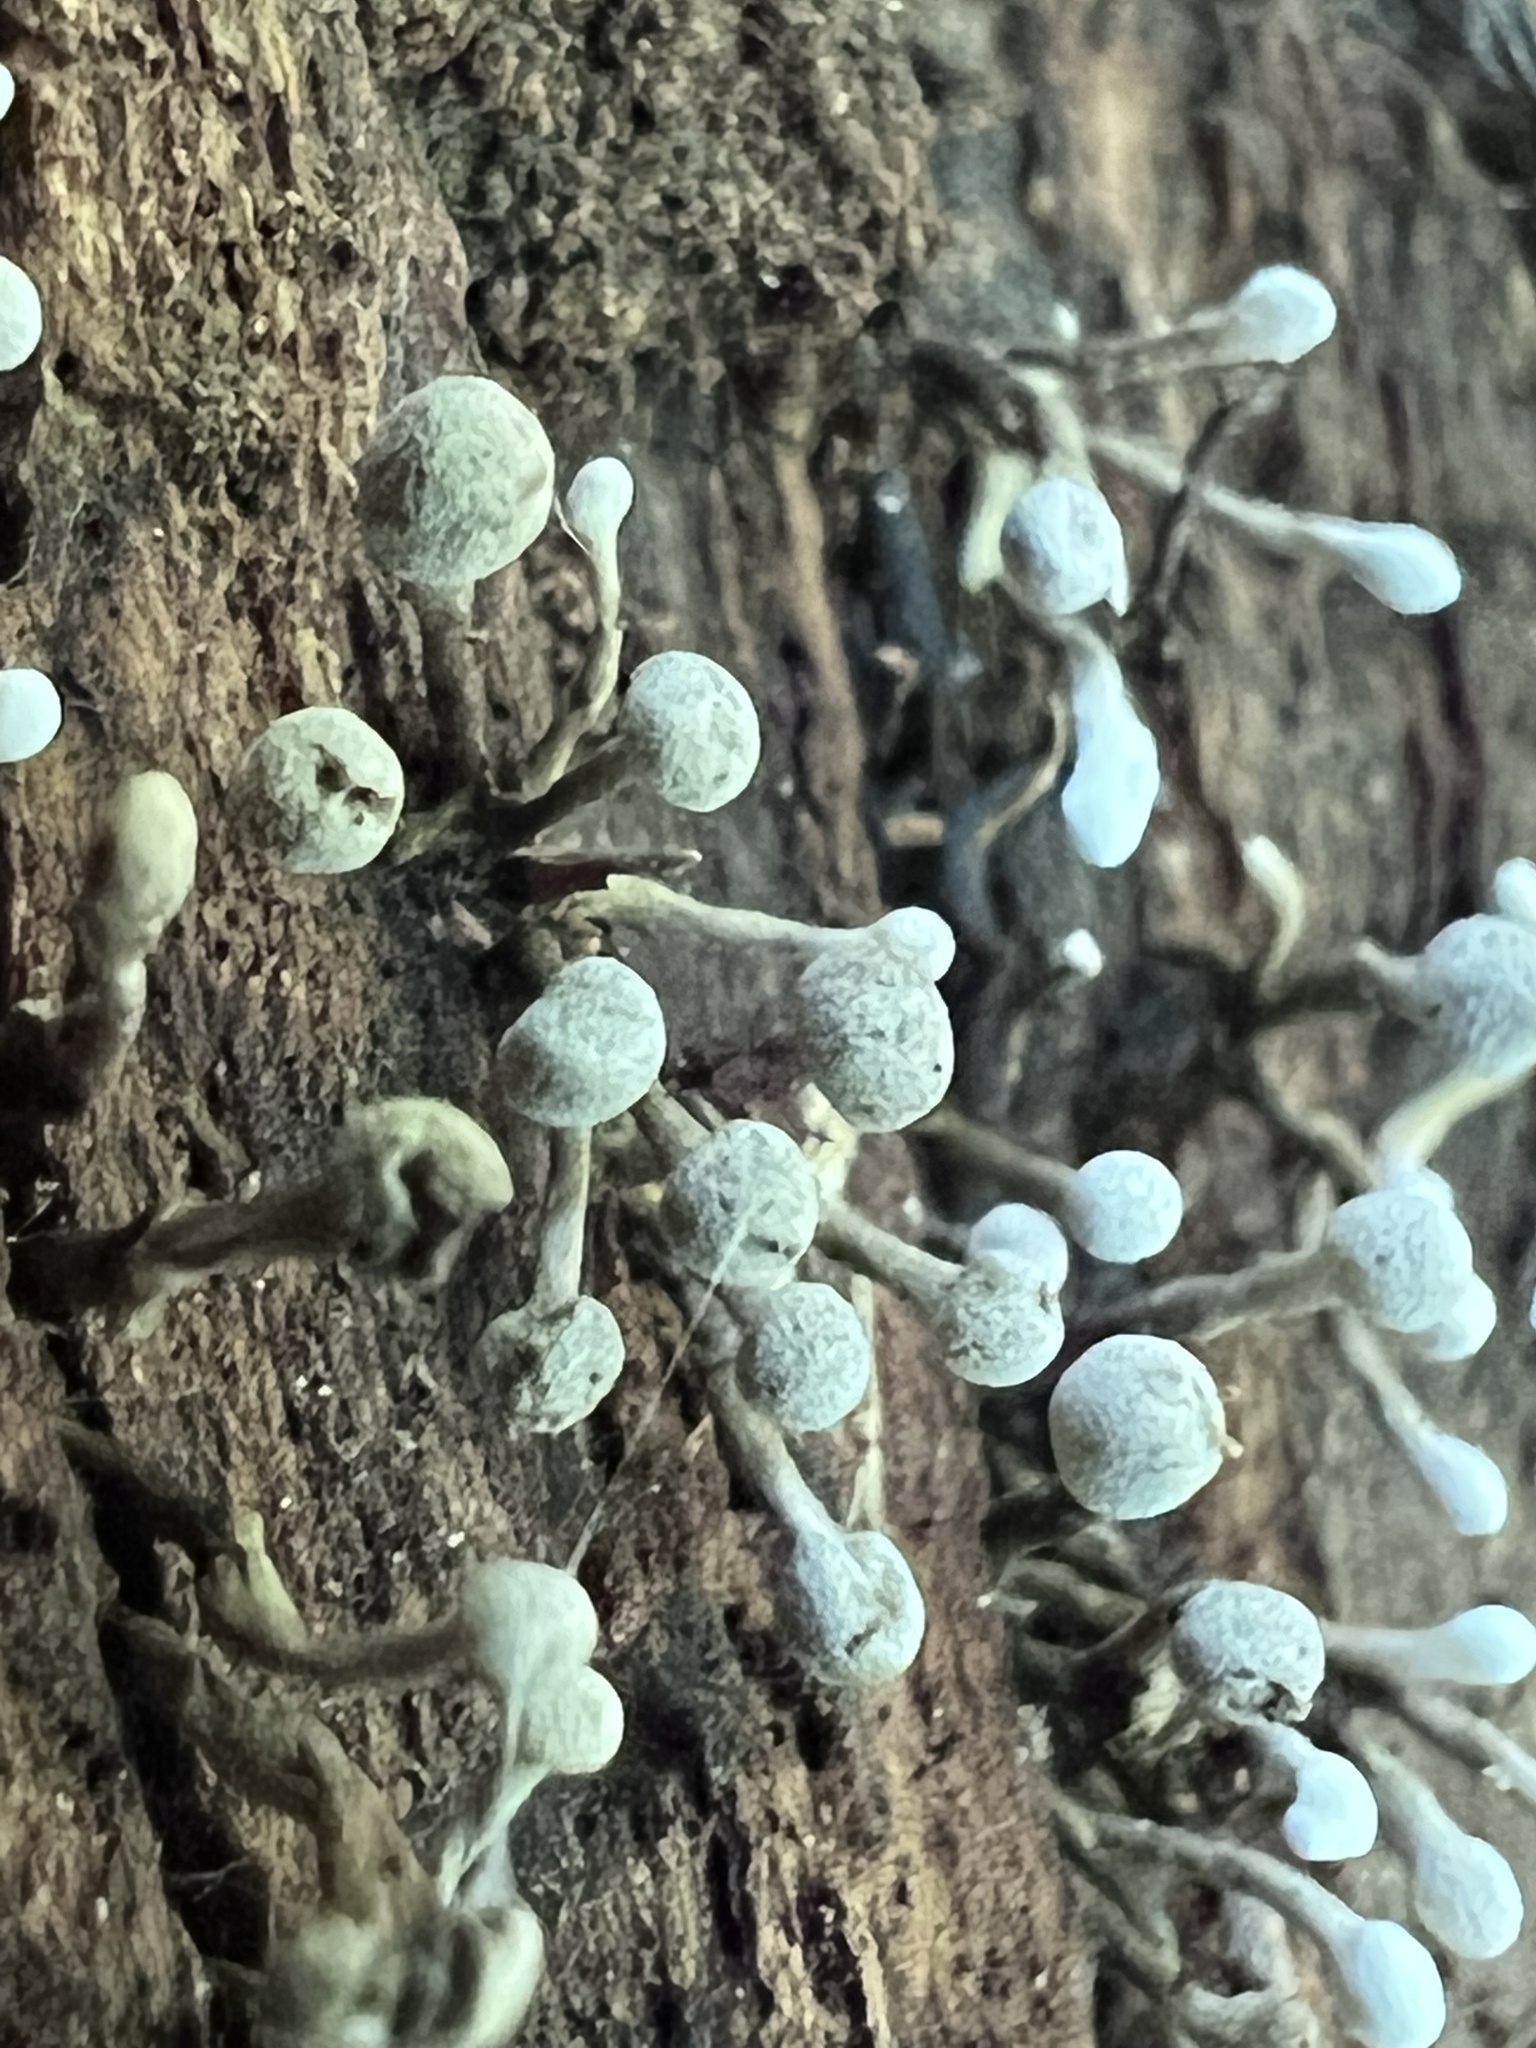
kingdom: Fungi
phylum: Basidiomycota
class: Atractiellomycetes
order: Atractiellales
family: Phleogenaceae
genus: Phleogena
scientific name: Phleogena faginea
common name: Fenugreek stalkball
